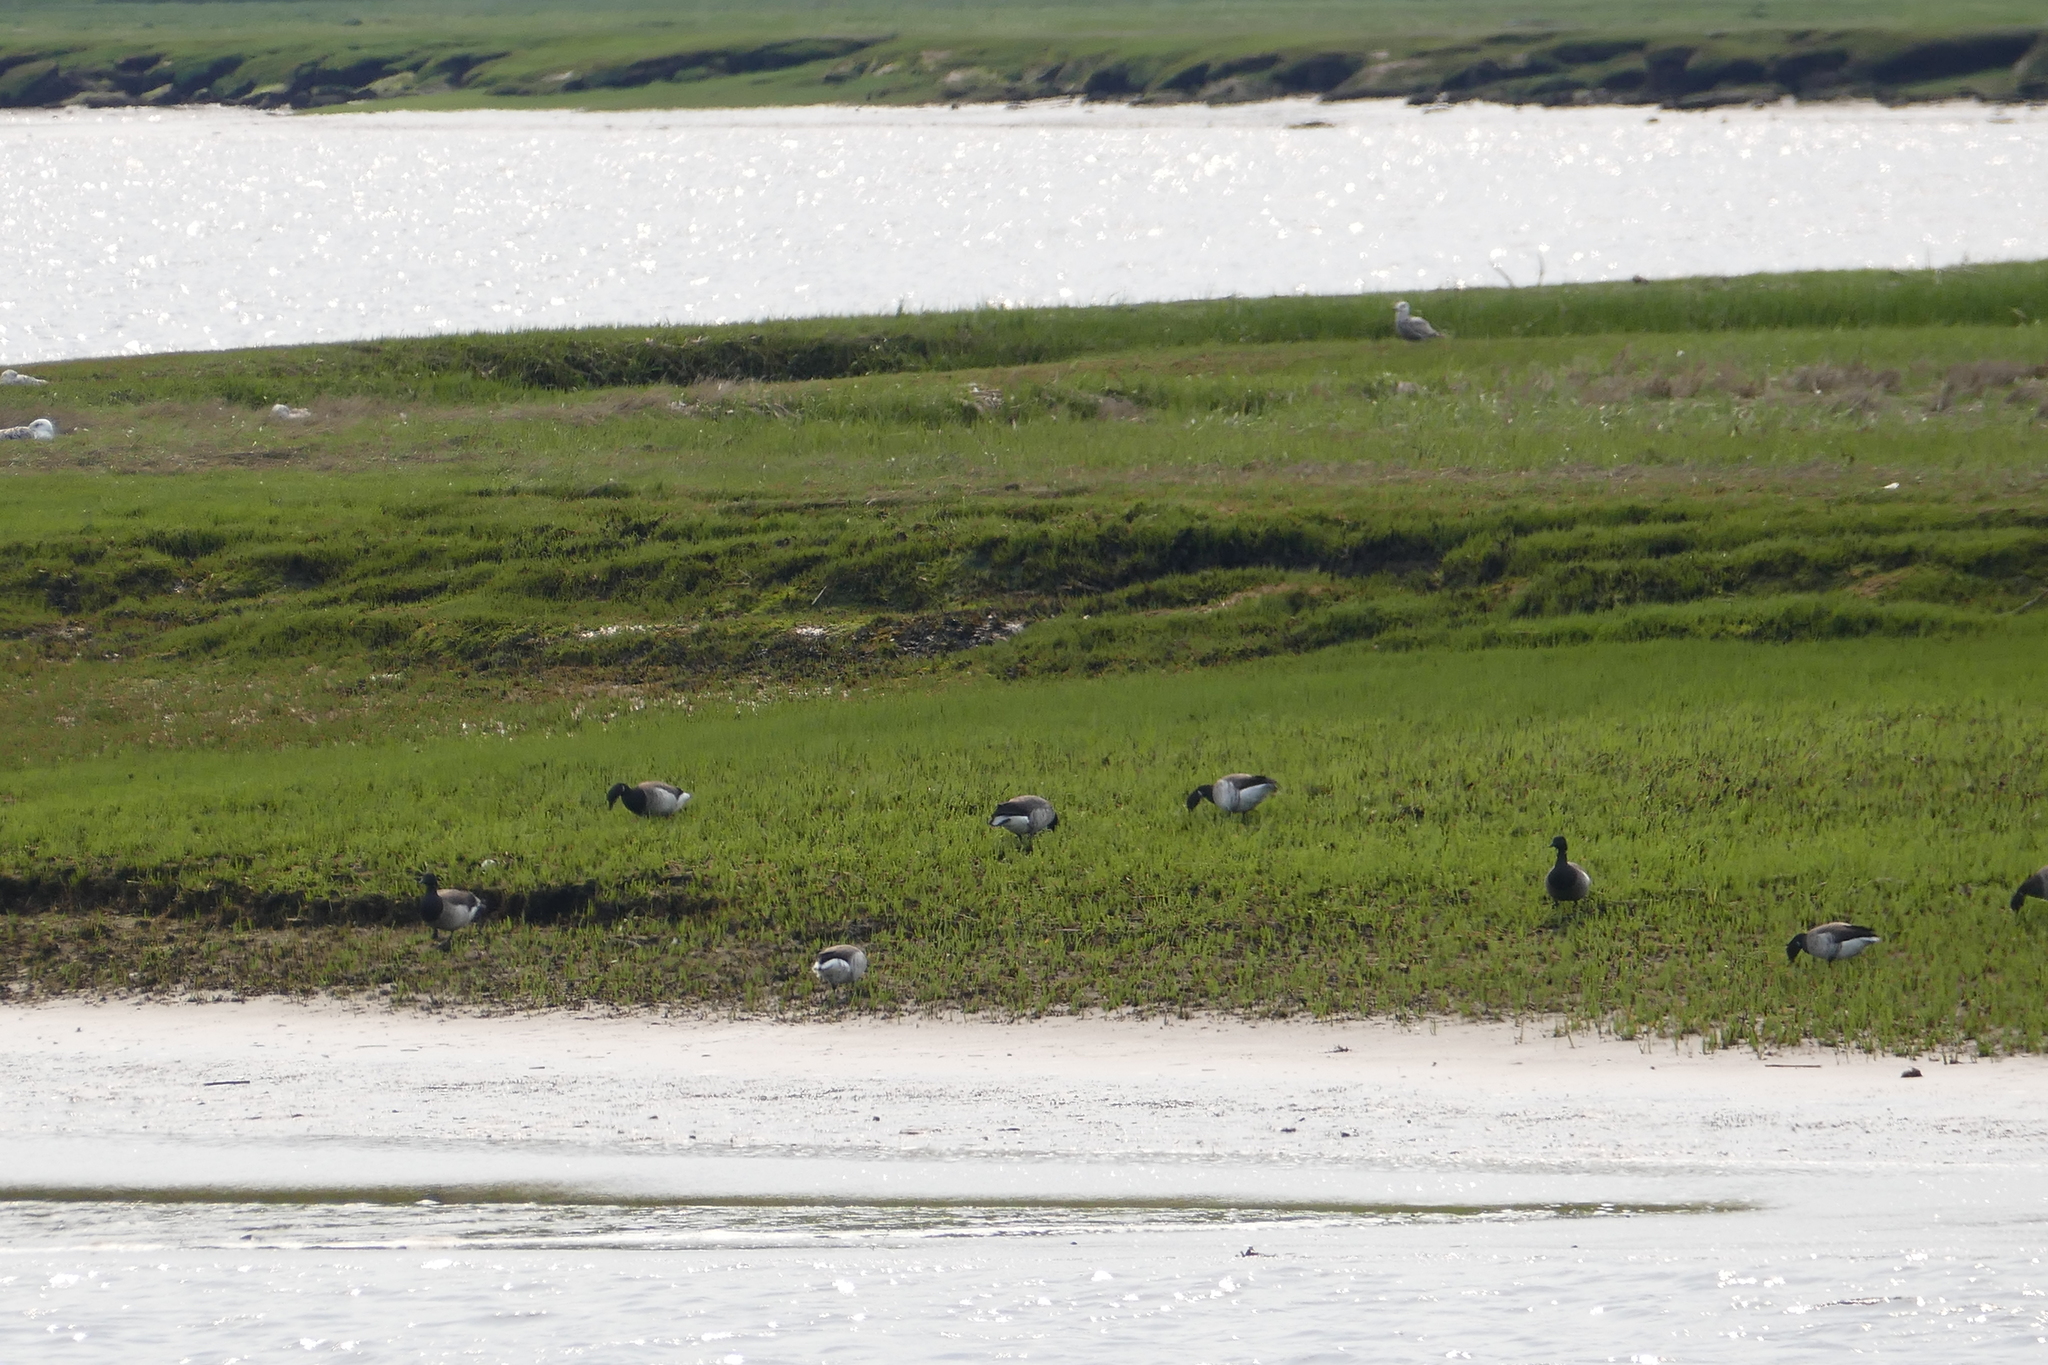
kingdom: Animalia
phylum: Chordata
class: Aves
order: Anseriformes
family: Anatidae
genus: Branta
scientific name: Branta bernicla
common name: Brant goose
